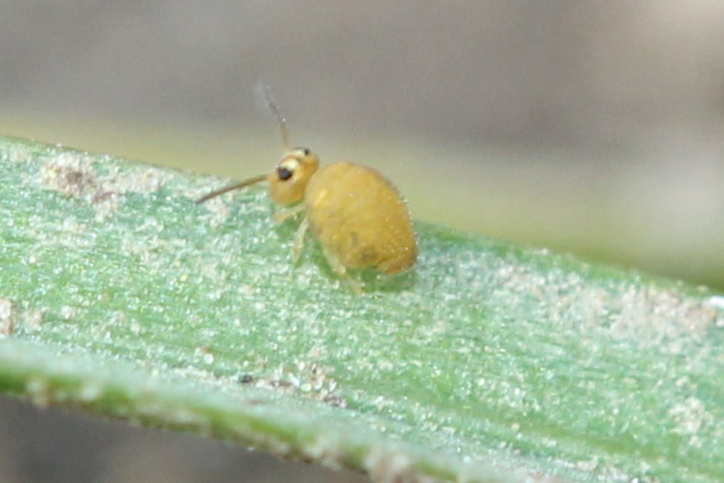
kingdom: Animalia
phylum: Arthropoda
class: Collembola
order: Symphypleona
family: Katiannidae
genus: Sminthurinus
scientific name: Sminthurinus henshawi
